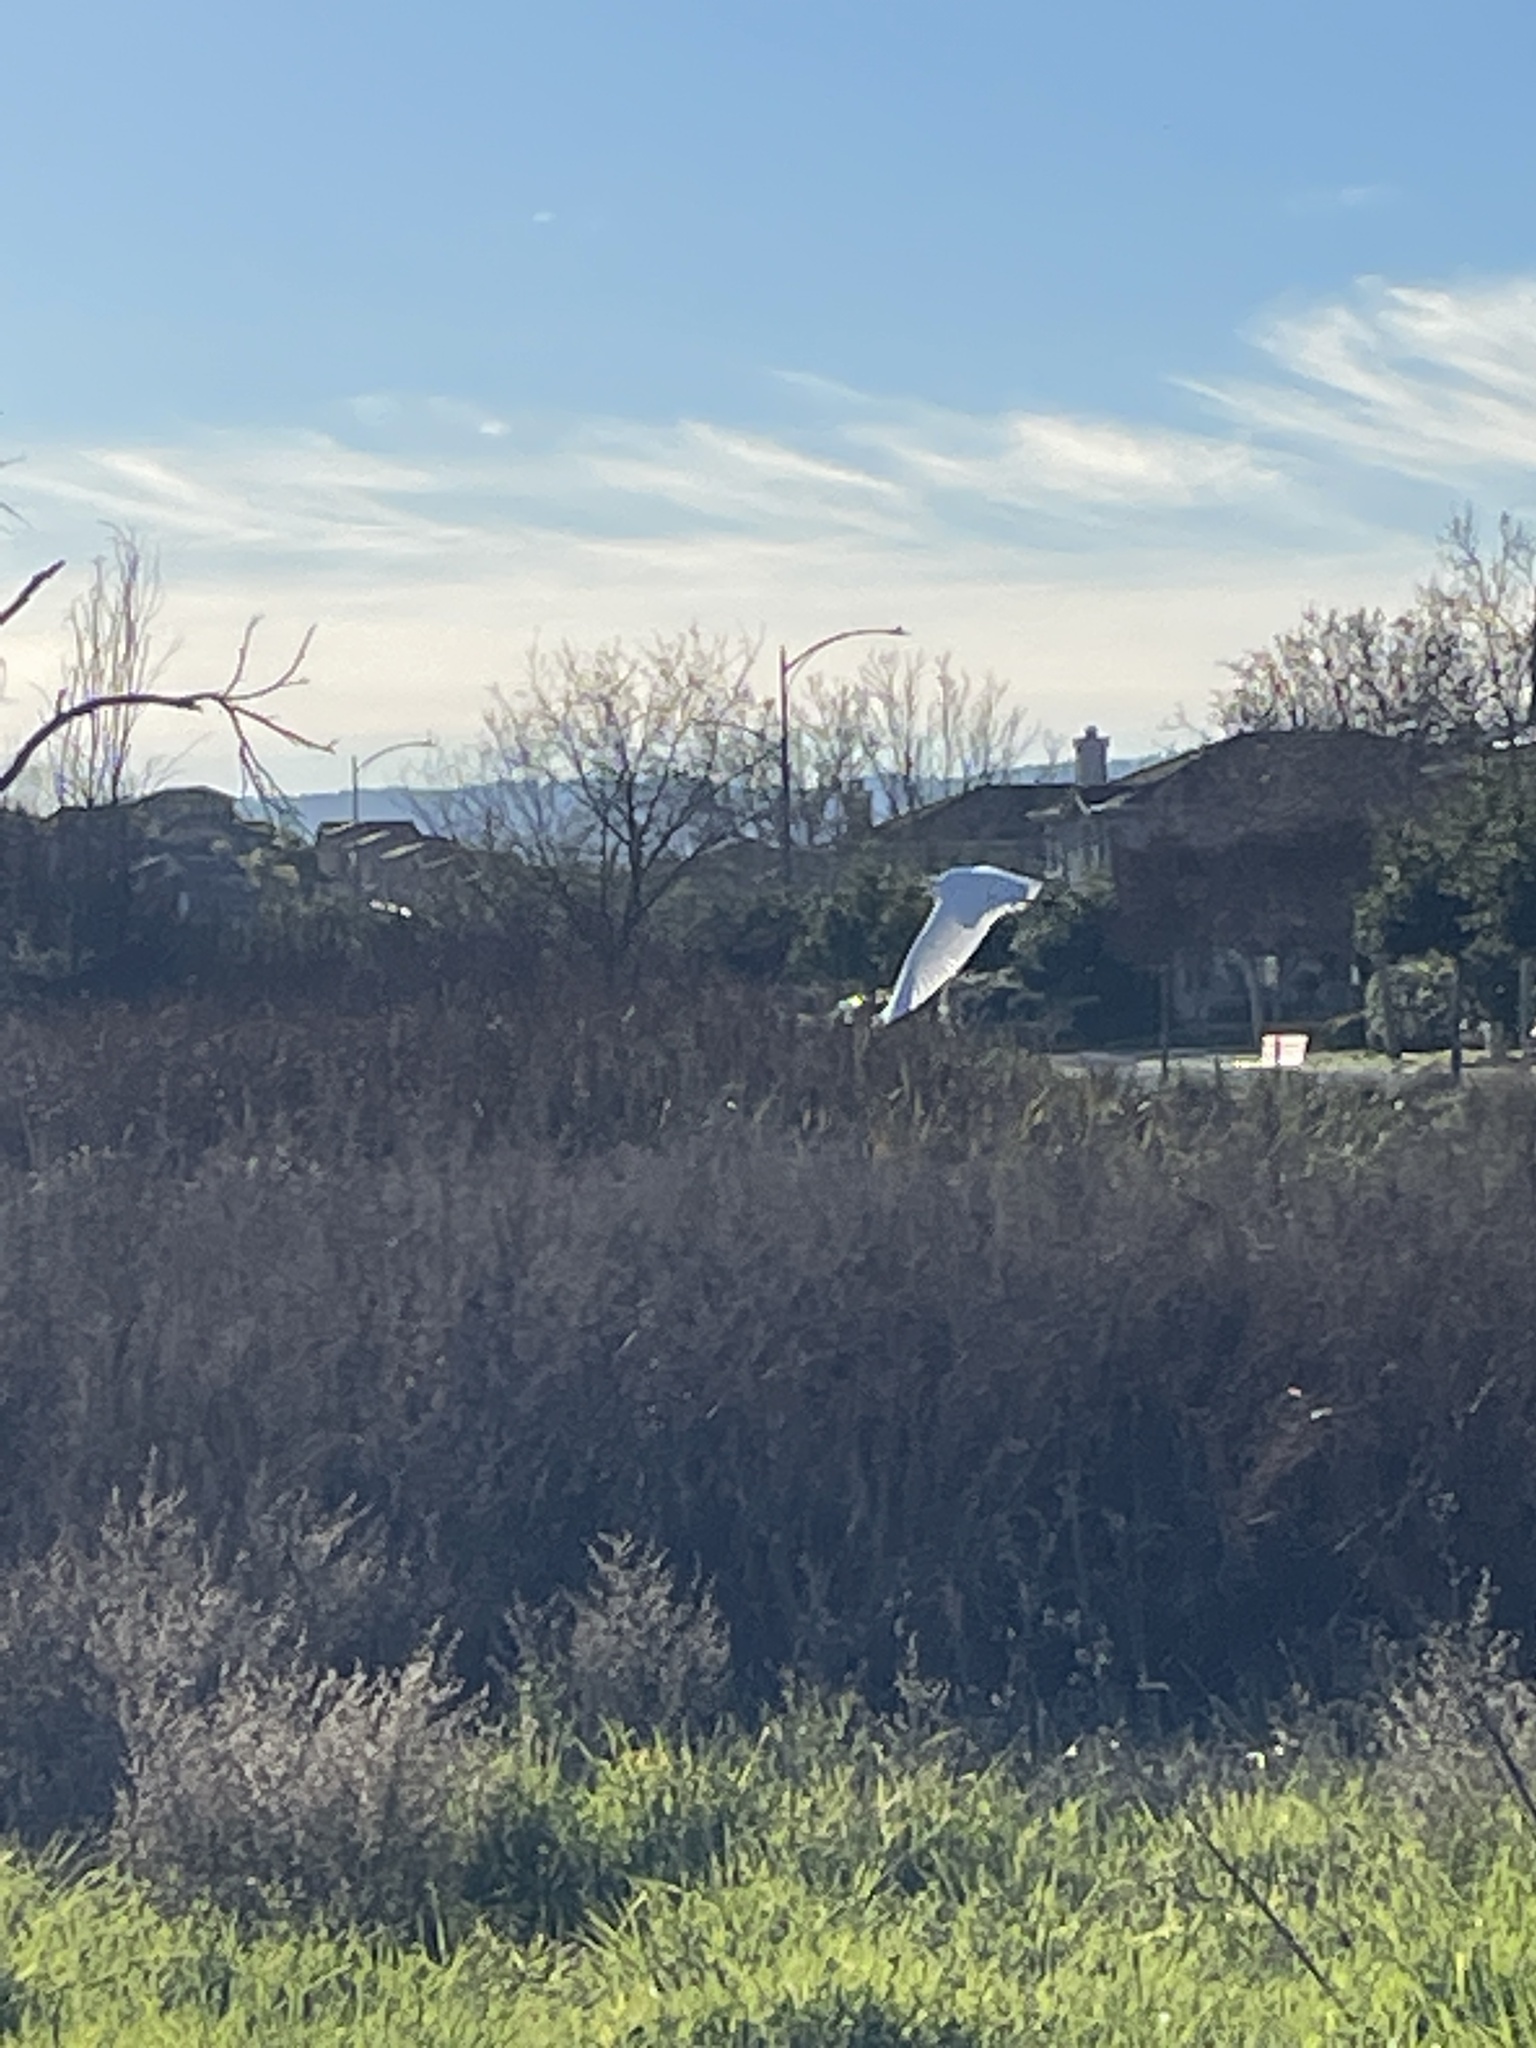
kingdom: Animalia
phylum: Chordata
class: Aves
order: Pelecaniformes
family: Ardeidae
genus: Ardea
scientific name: Ardea alba
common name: Great egret
